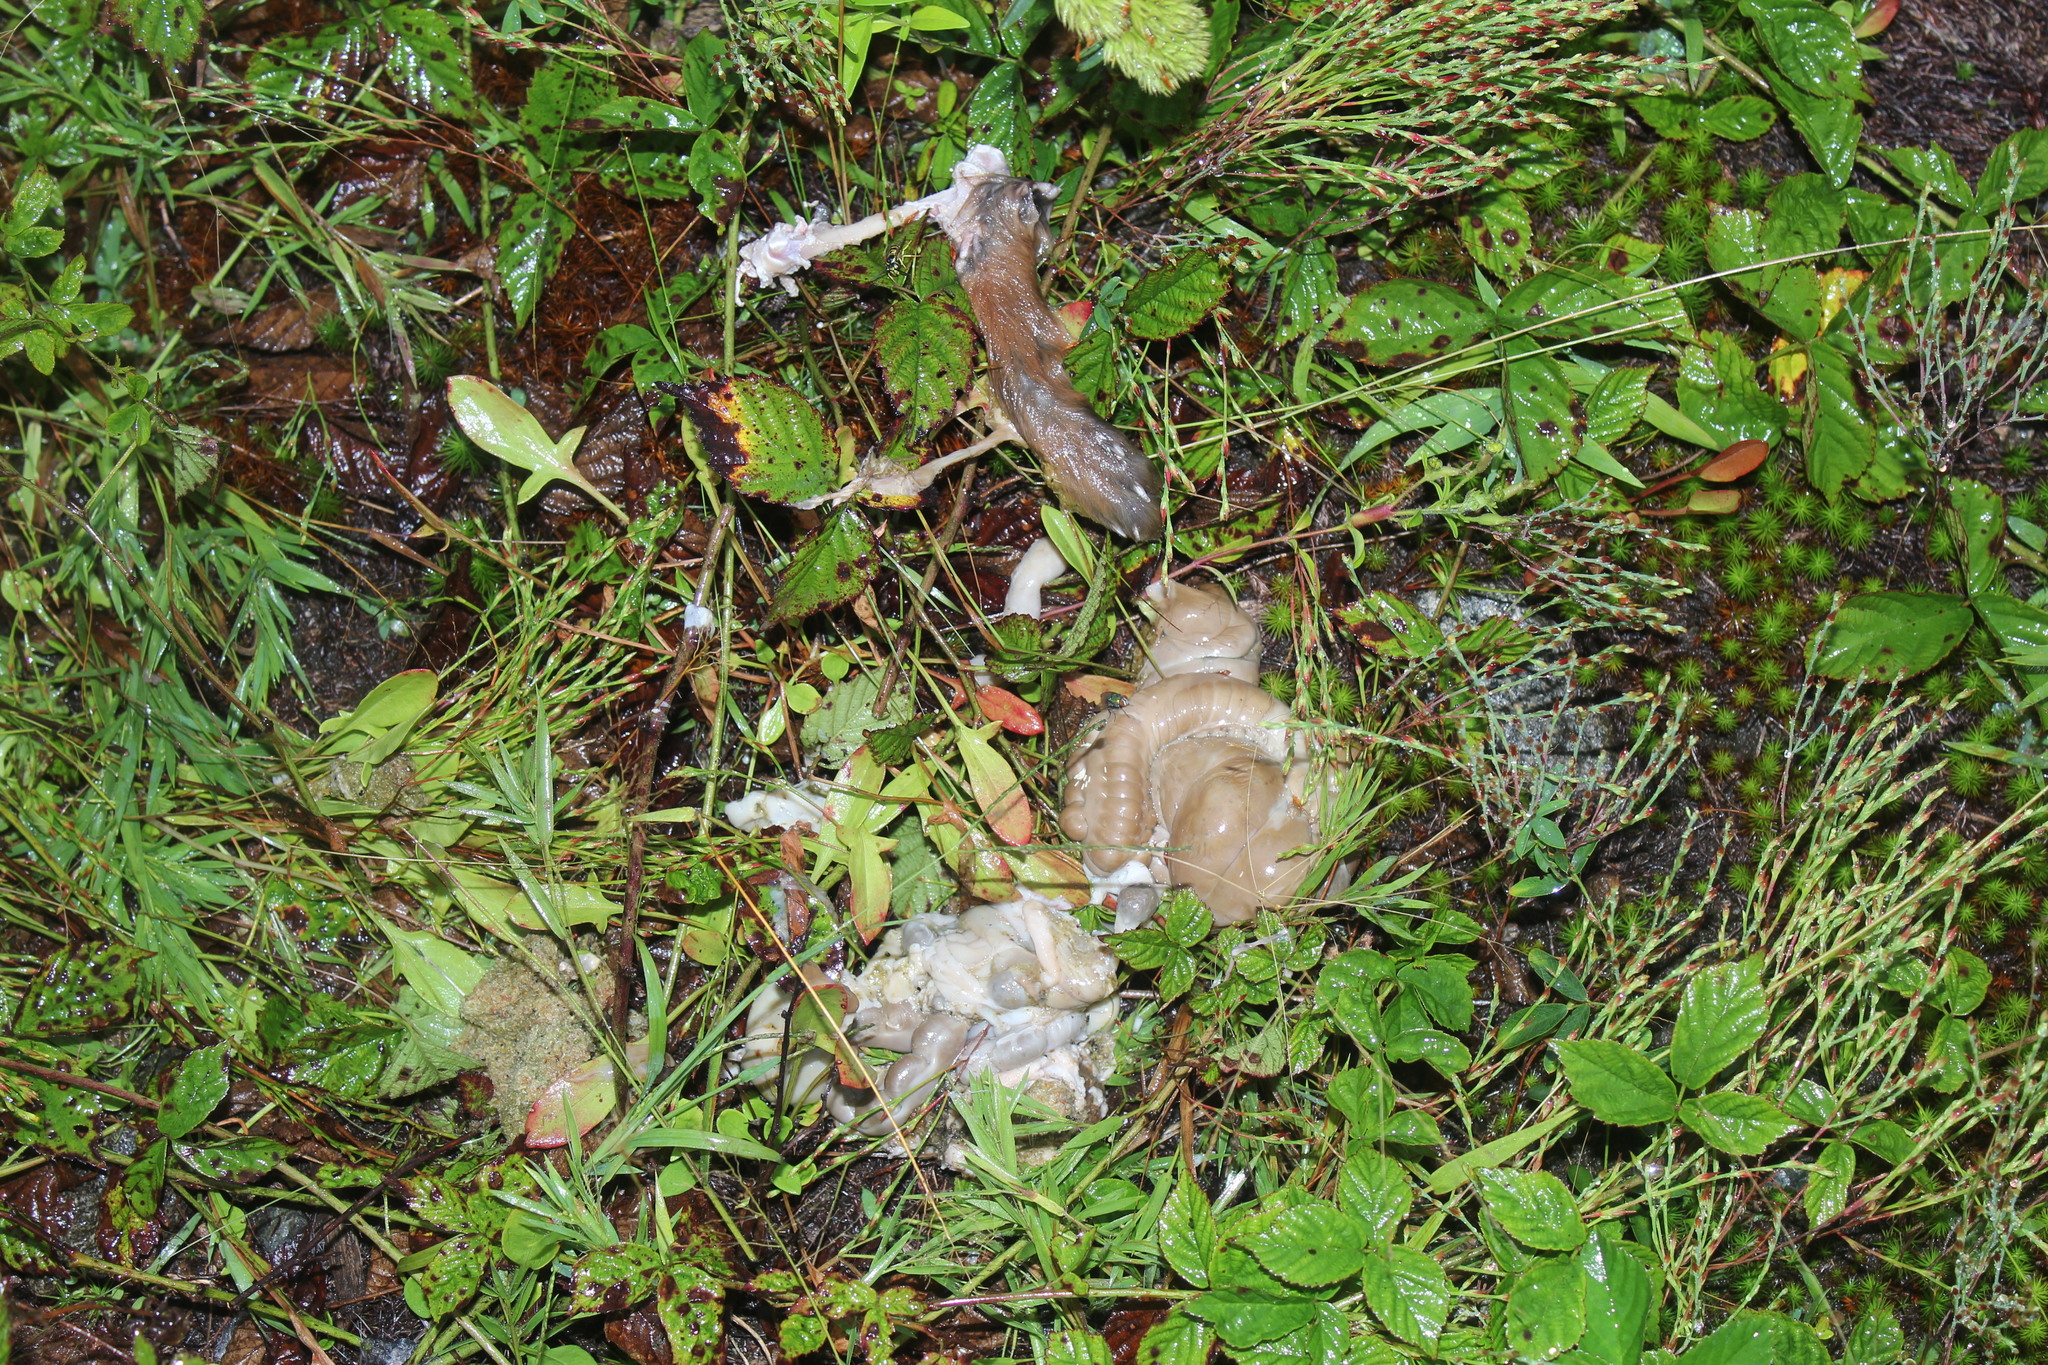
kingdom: Animalia
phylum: Chordata
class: Mammalia
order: Lagomorpha
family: Leporidae
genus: Sylvilagus
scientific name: Sylvilagus floridanus
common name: Eastern cottontail
